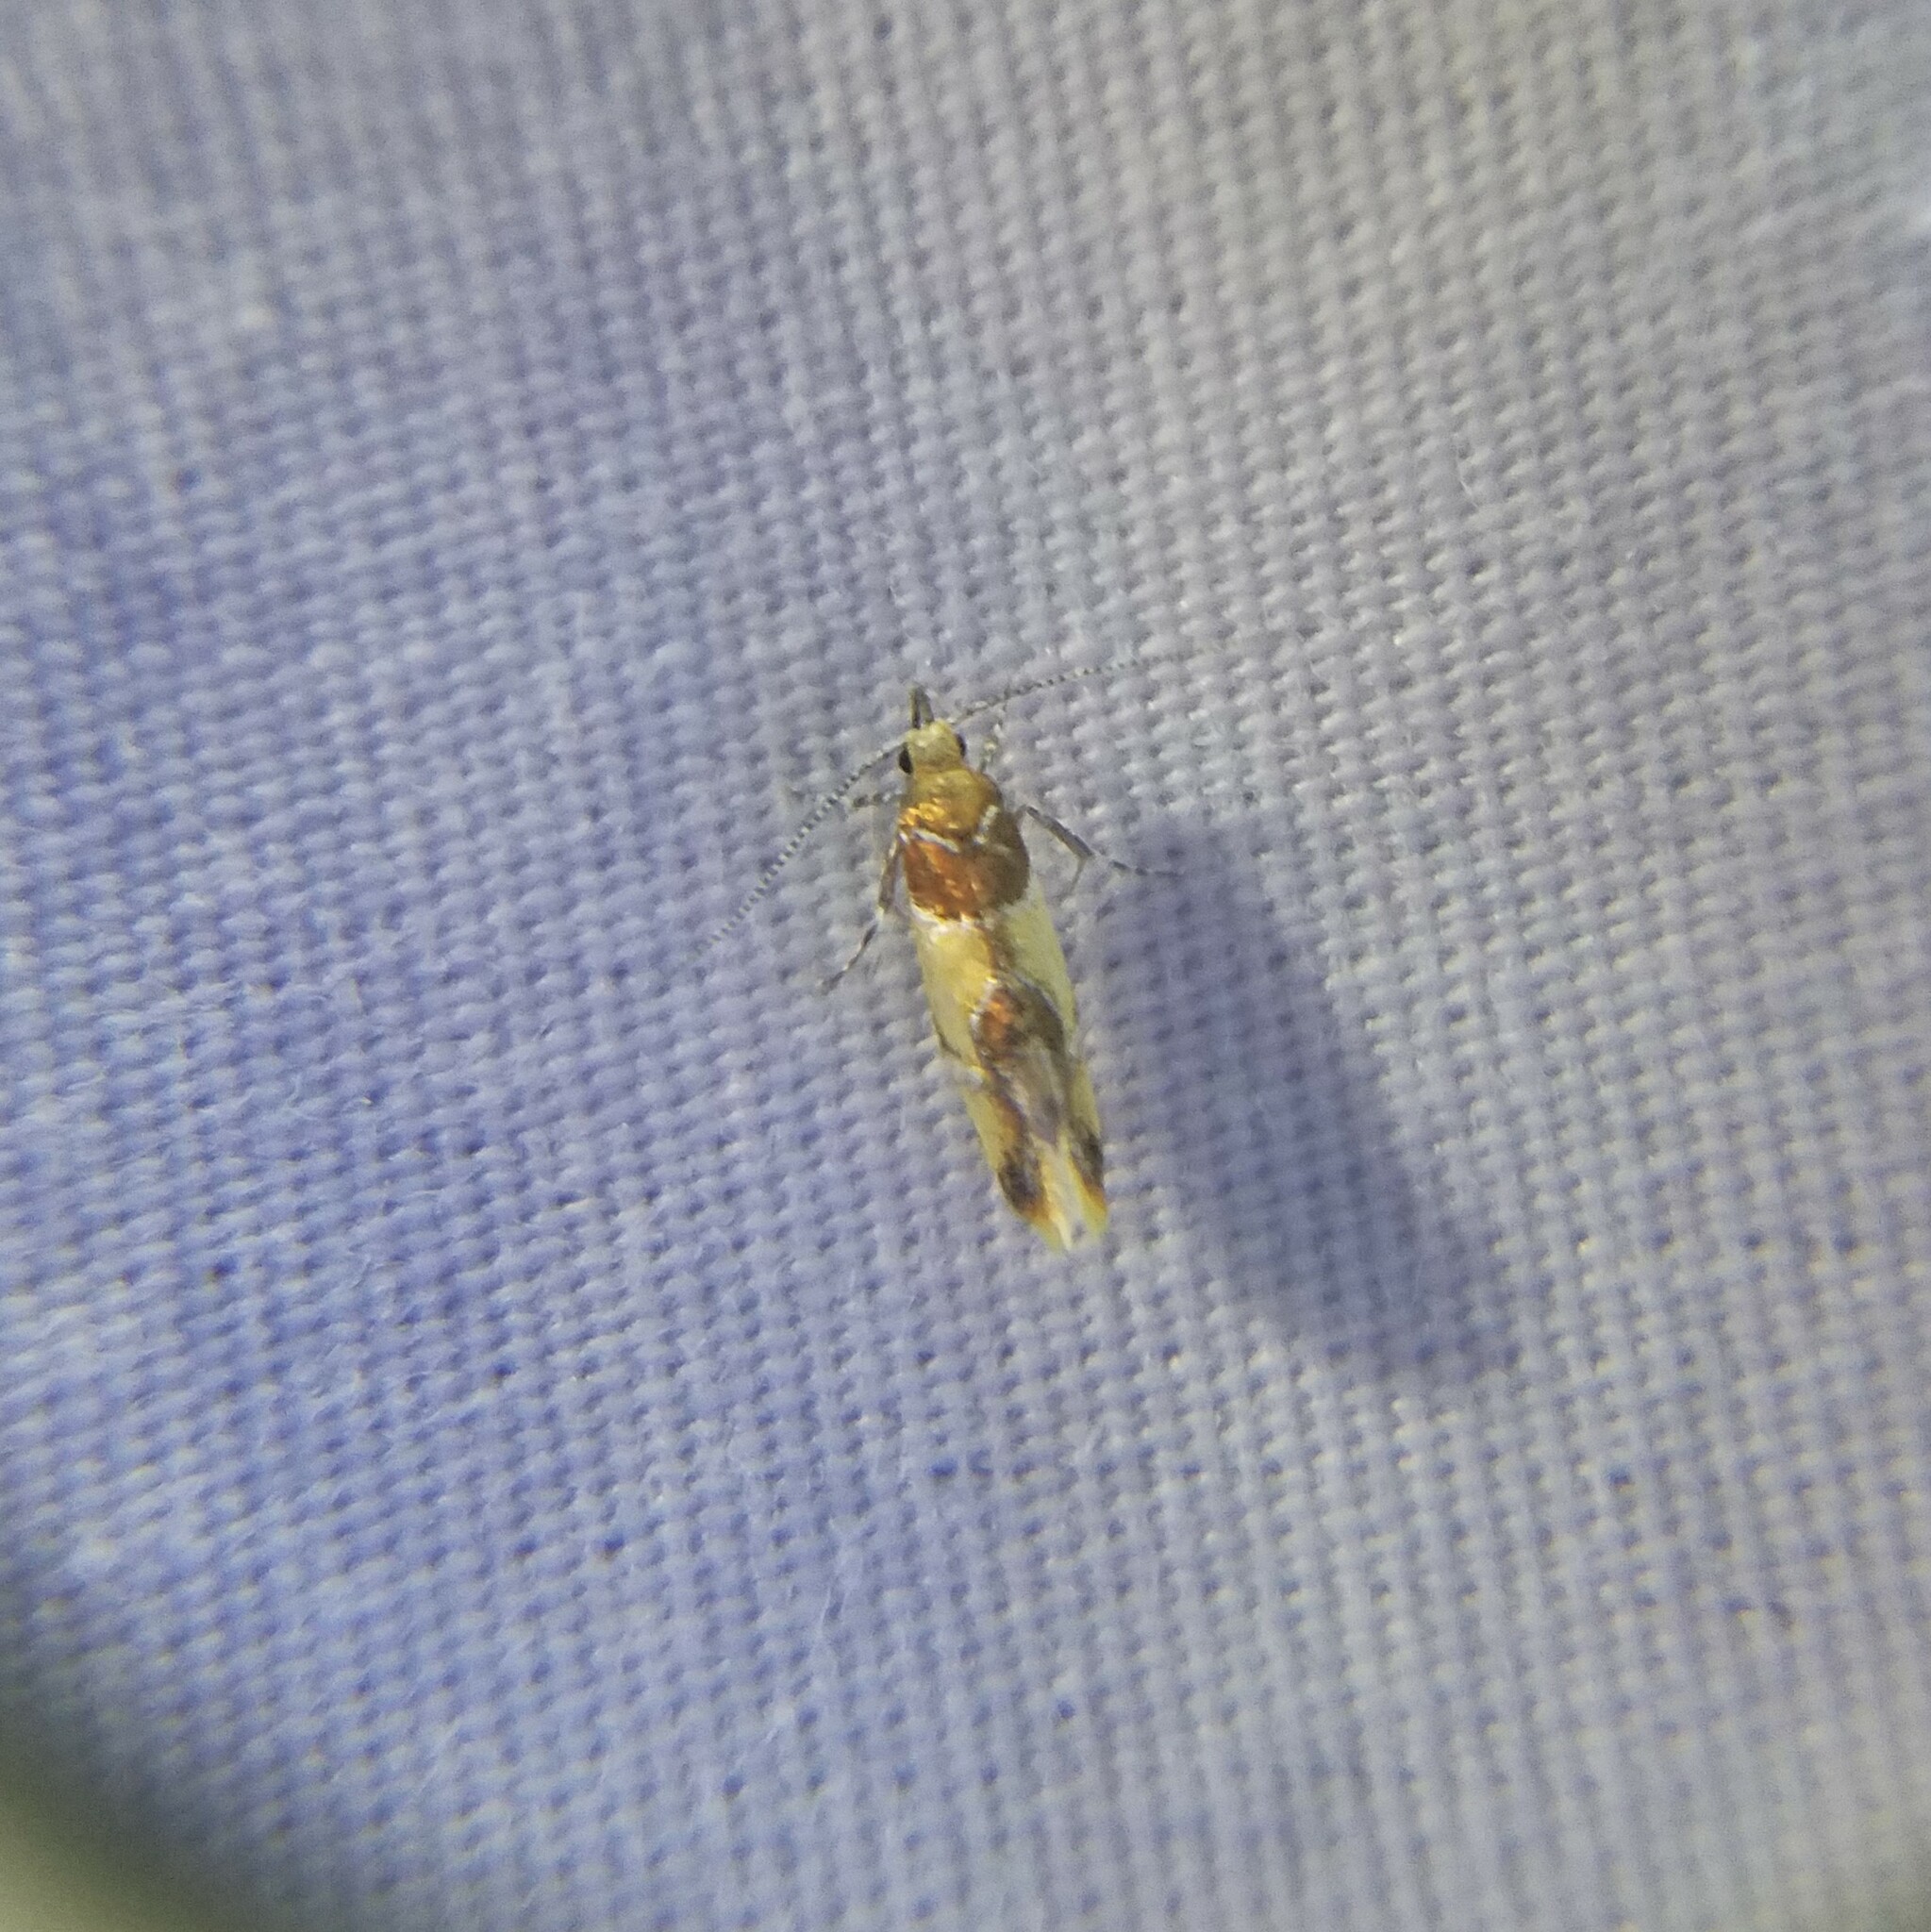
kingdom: Animalia
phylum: Arthropoda
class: Insecta
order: Lepidoptera
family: Oecophoridae
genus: Callima
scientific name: Callima argenticinctella
